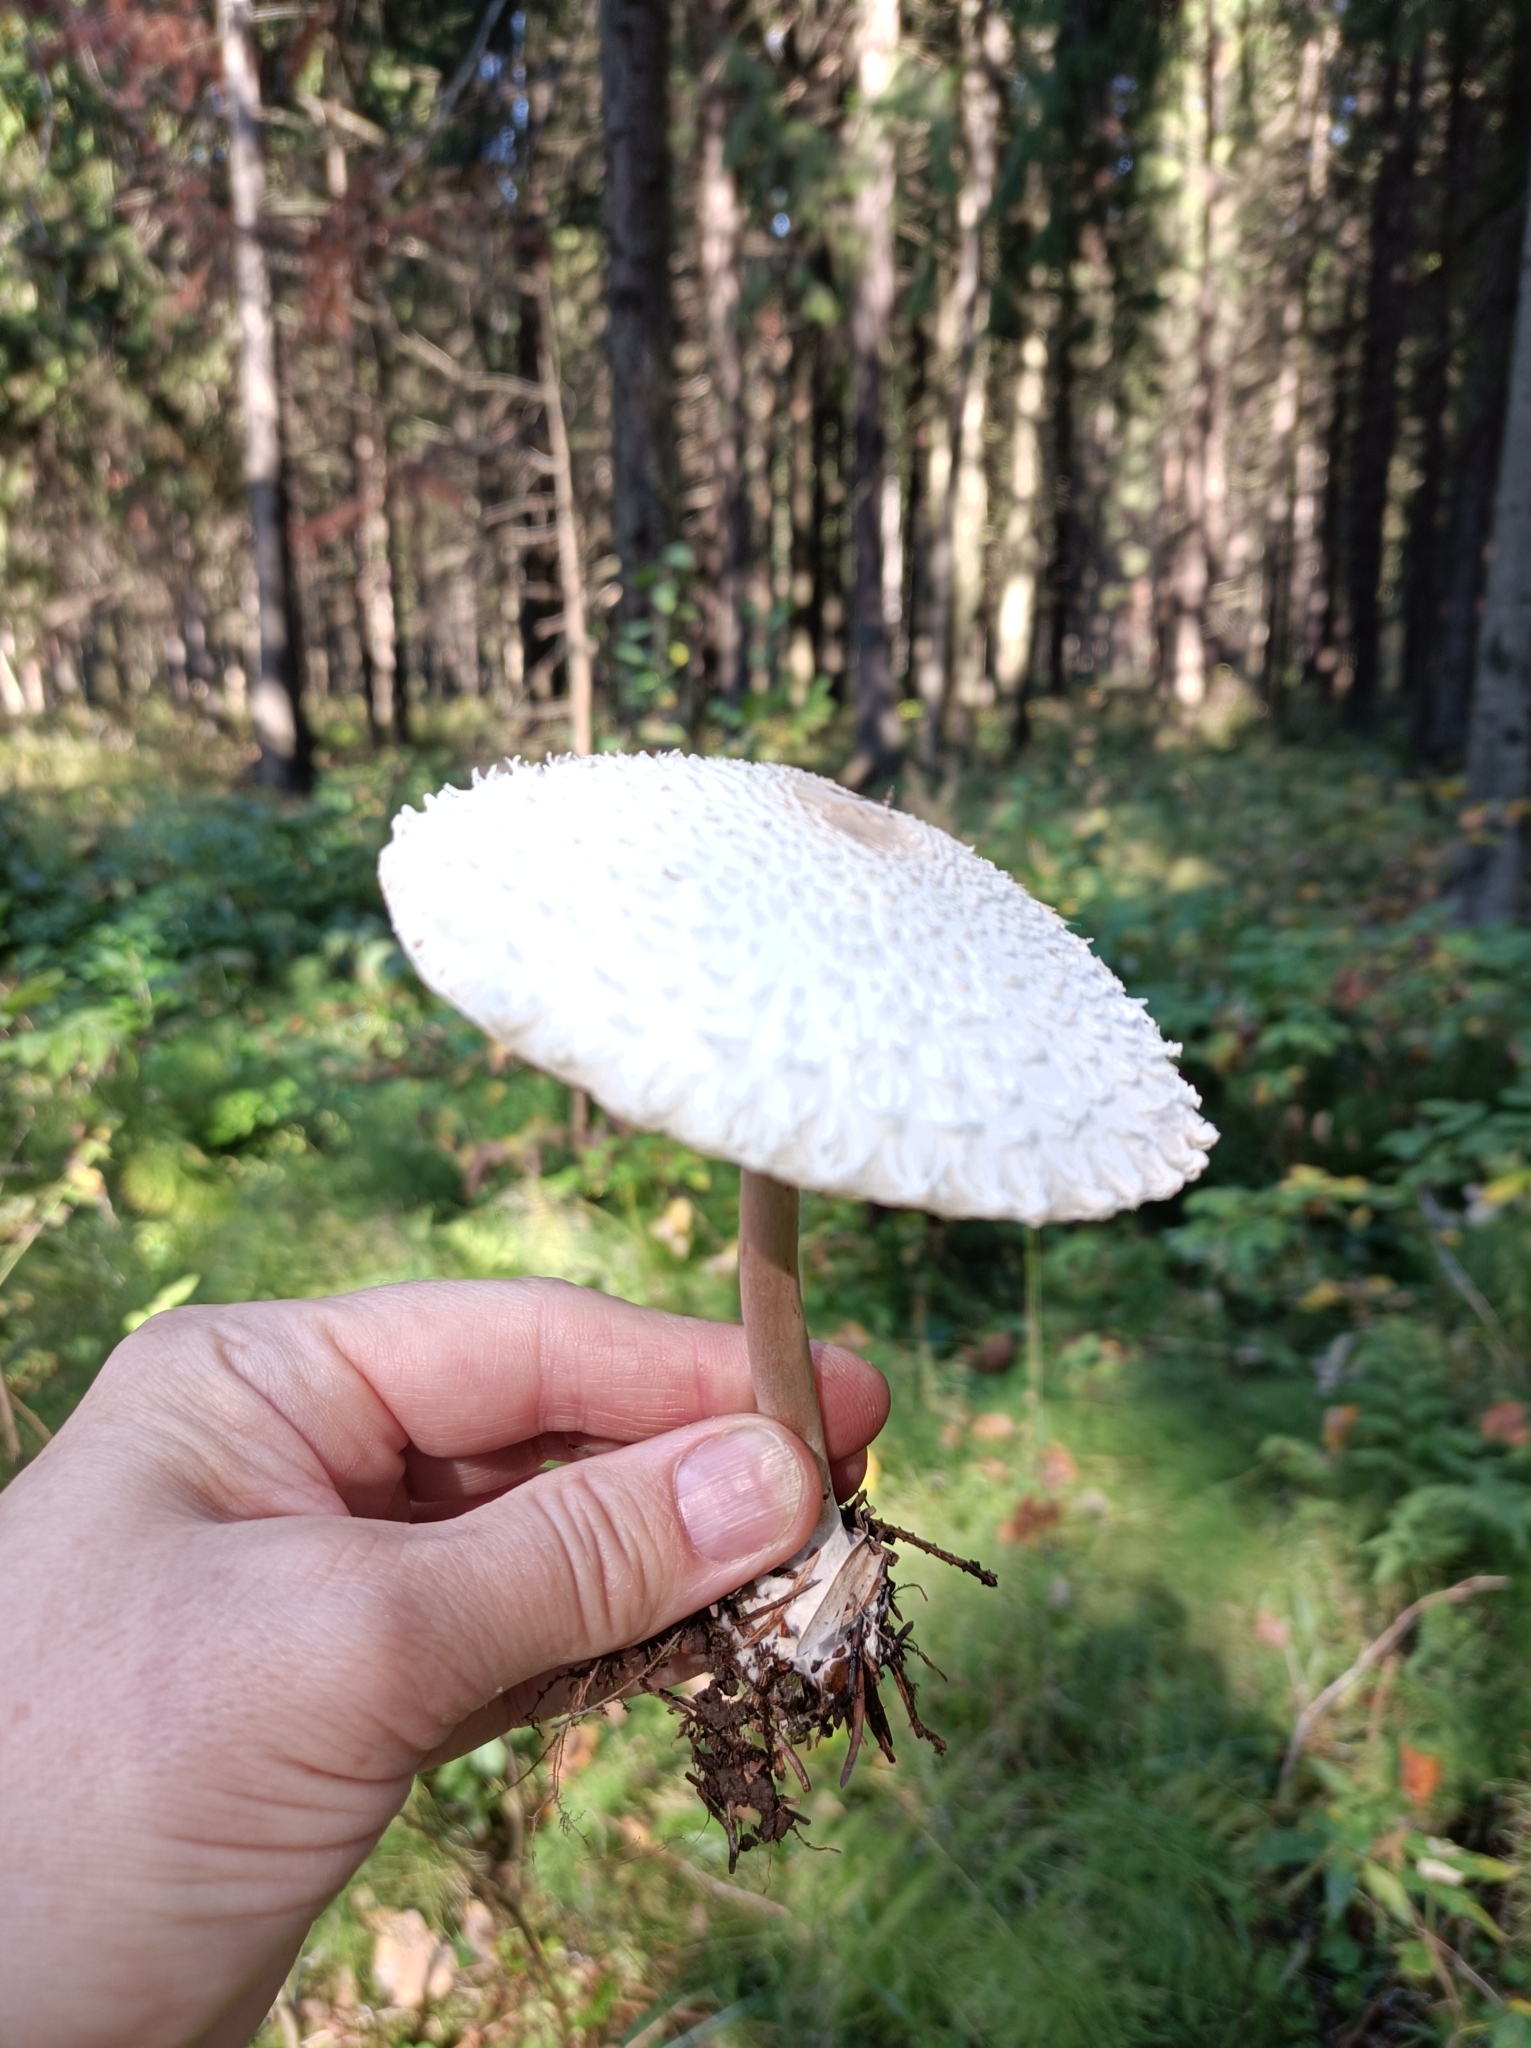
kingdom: Fungi
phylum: Basidiomycota
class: Agaricomycetes
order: Agaricales
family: Agaricaceae
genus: Leucoagaricus
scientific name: Leucoagaricus nympharum
